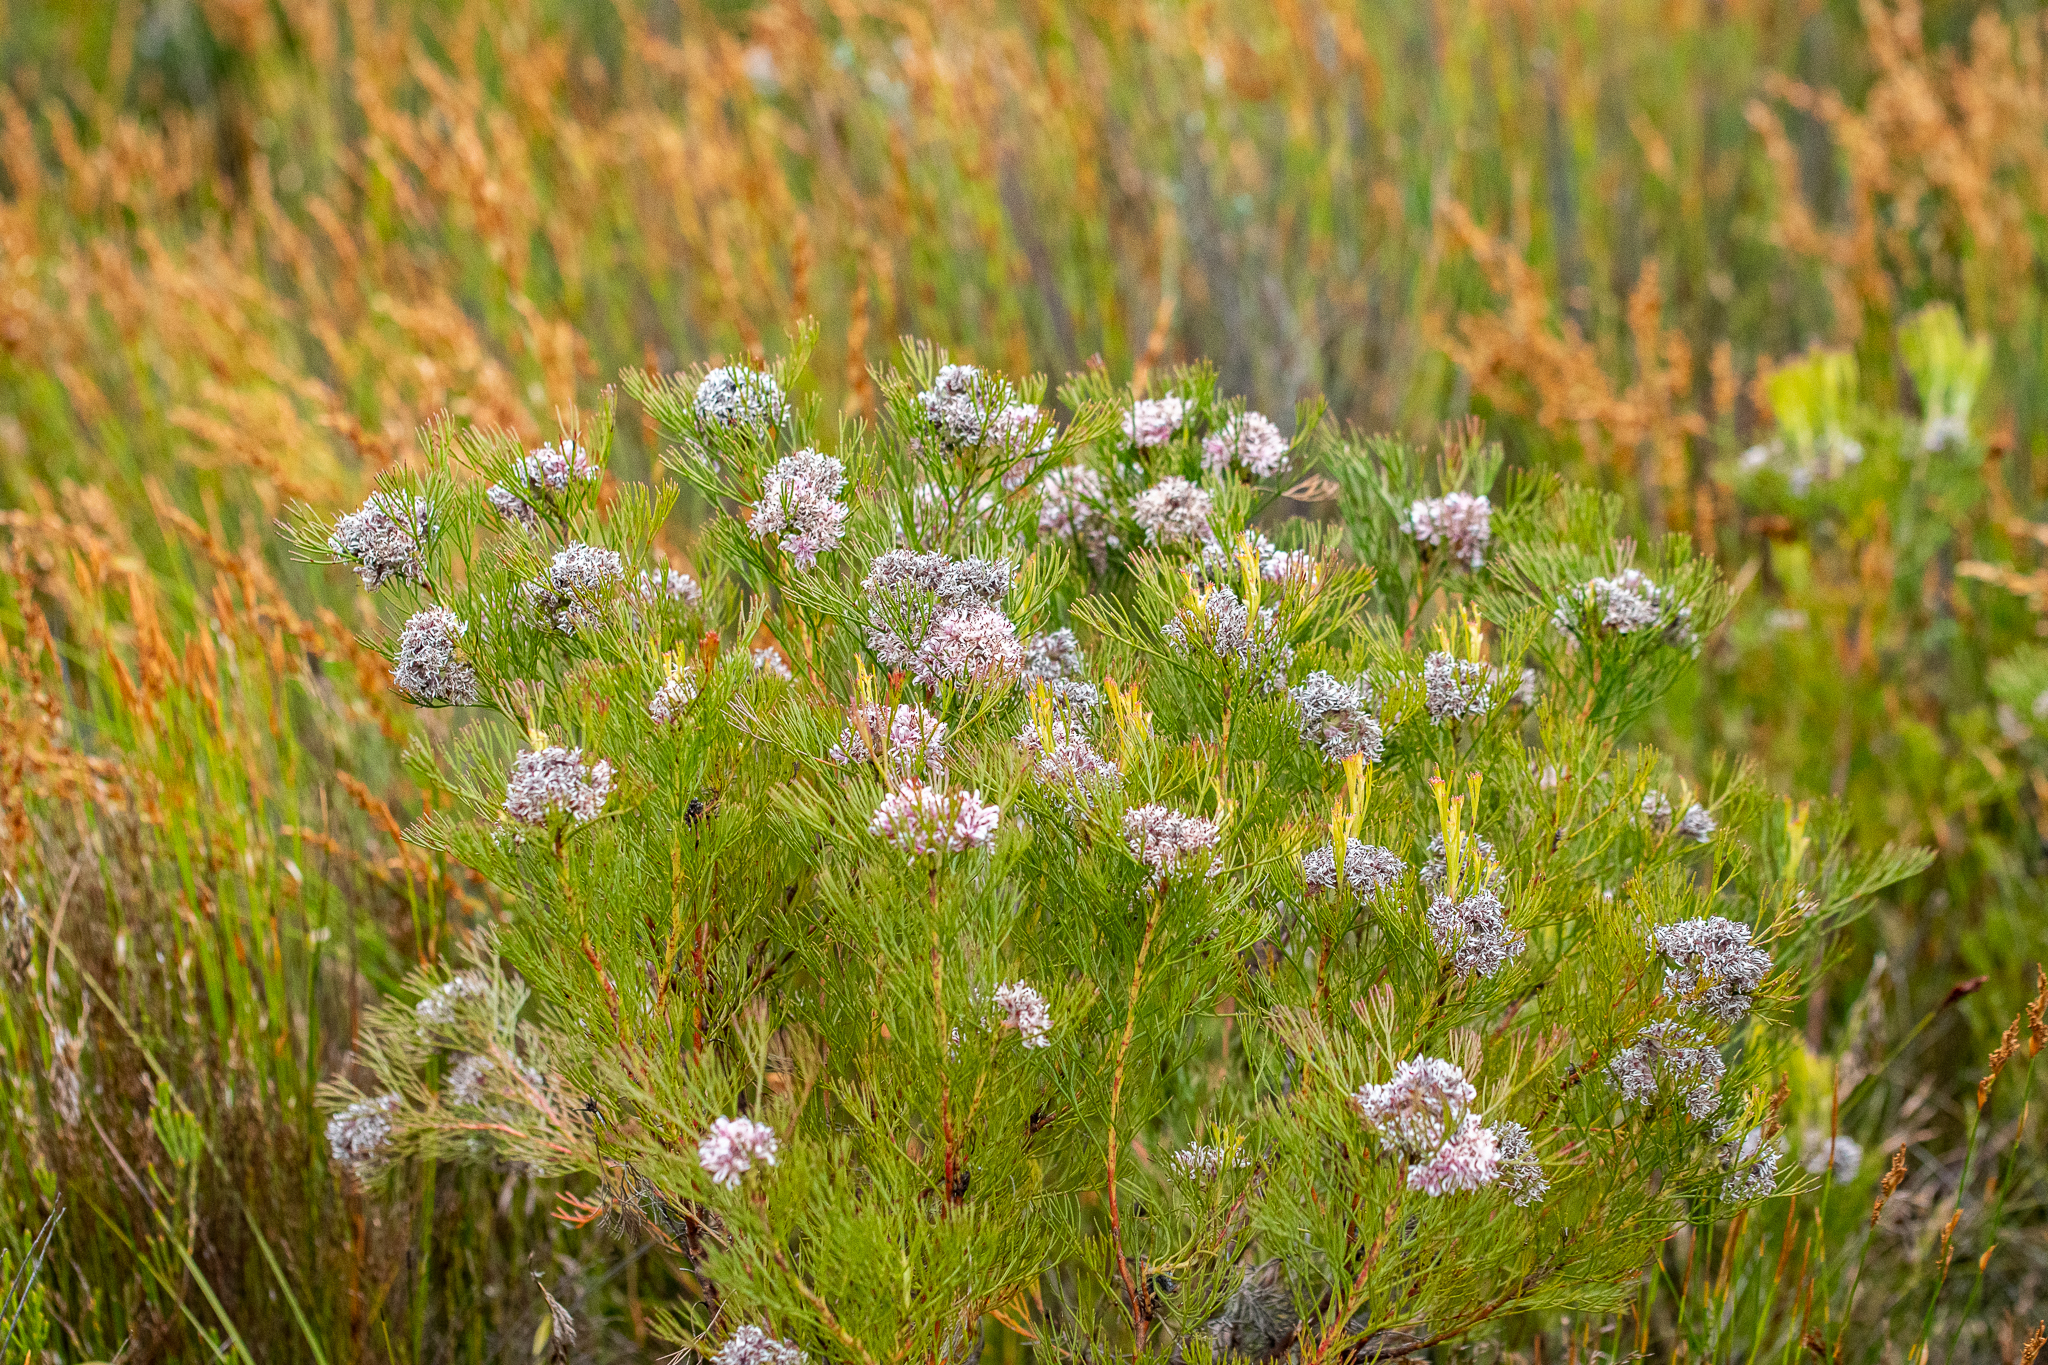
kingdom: Plantae
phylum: Tracheophyta
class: Magnoliopsida
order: Proteales
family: Proteaceae
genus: Serruria
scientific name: Serruria ascendens
